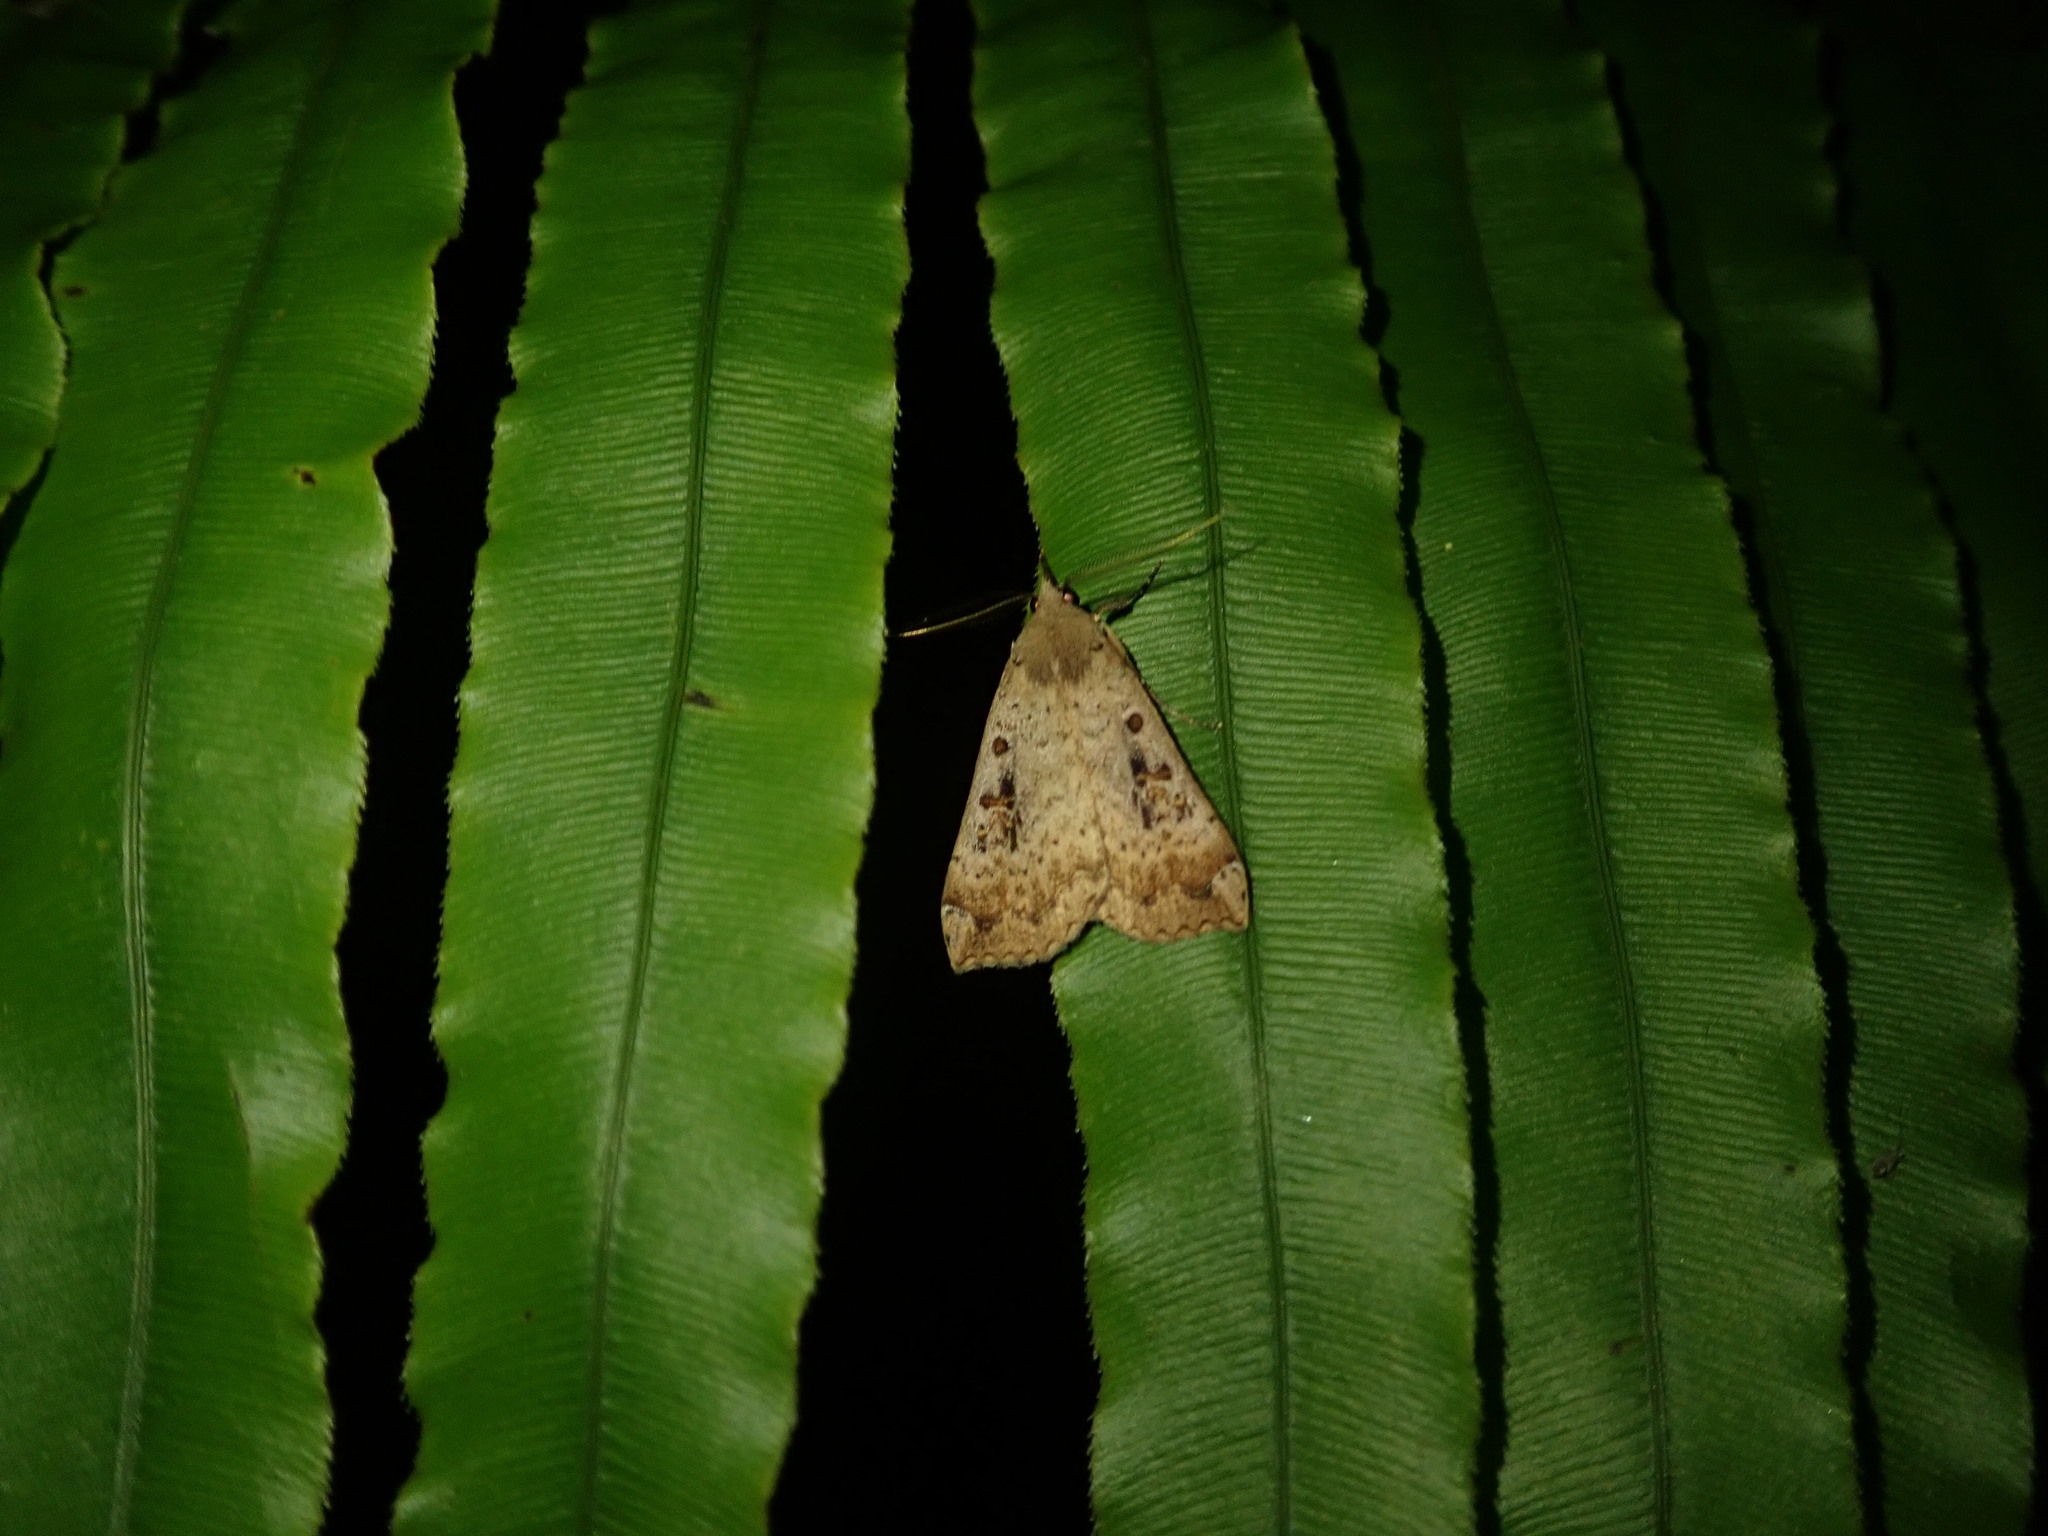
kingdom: Animalia
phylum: Arthropoda
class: Insecta
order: Lepidoptera
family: Erebidae
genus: Rhapsa
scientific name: Rhapsa scotosialis
